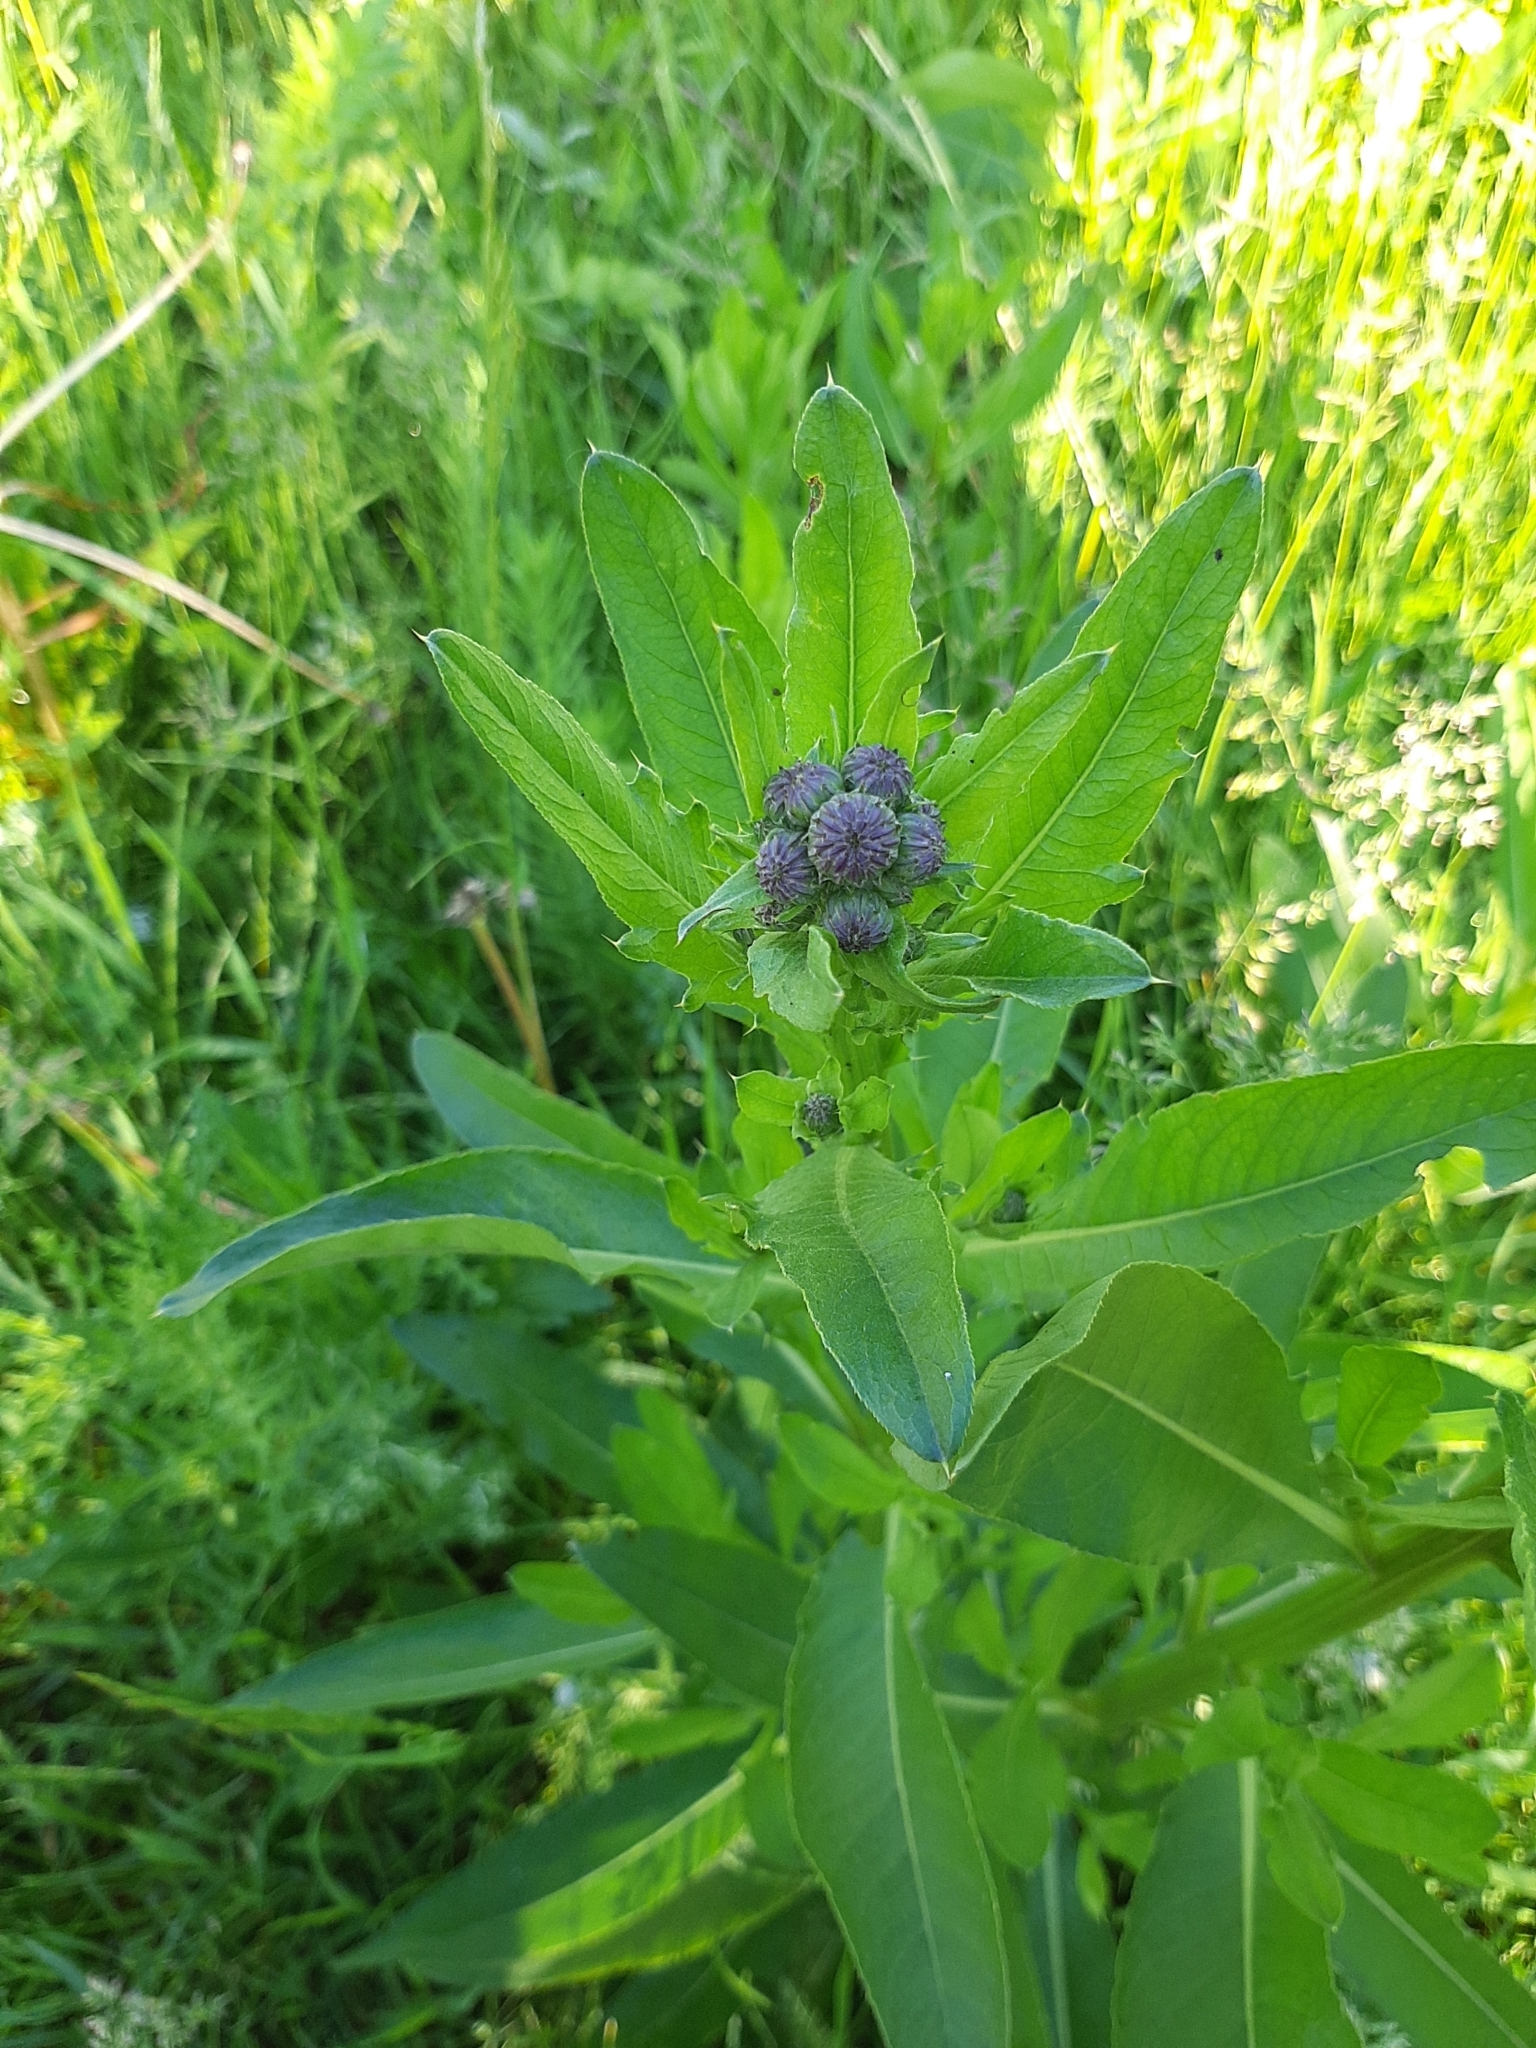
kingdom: Plantae
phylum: Tracheophyta
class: Magnoliopsida
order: Asterales
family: Asteraceae
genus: Cirsium
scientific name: Cirsium arvense
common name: Creeping thistle
